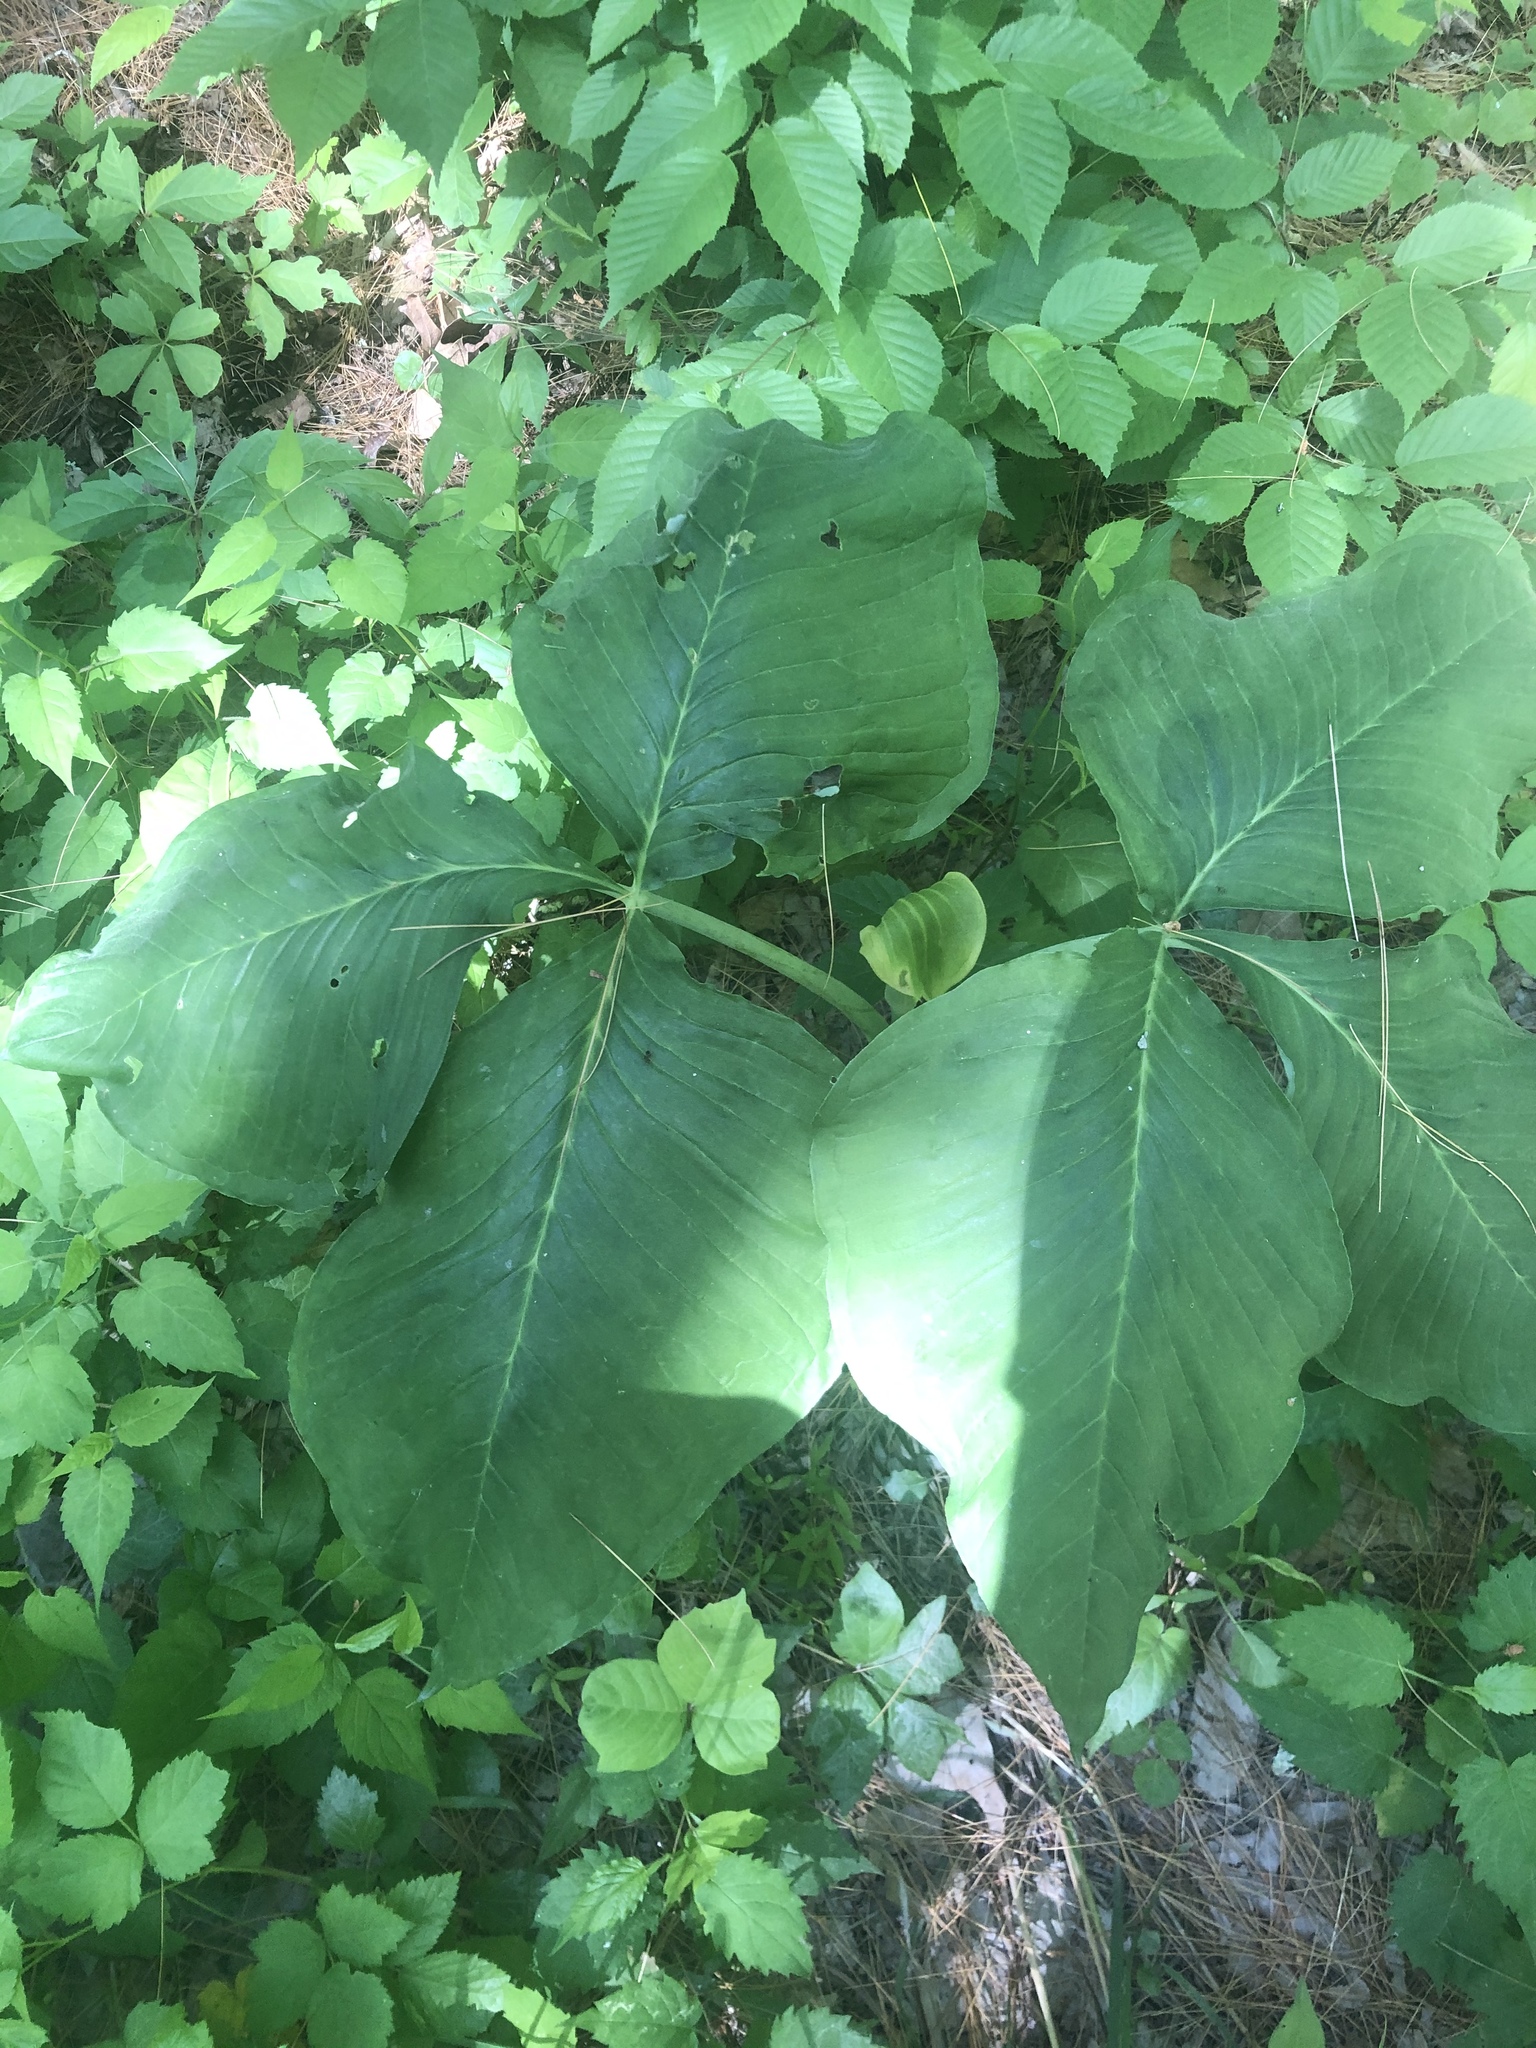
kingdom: Plantae
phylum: Tracheophyta
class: Liliopsida
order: Alismatales
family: Araceae
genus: Arisaema
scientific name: Arisaema triphyllum
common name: Jack-in-the-pulpit
